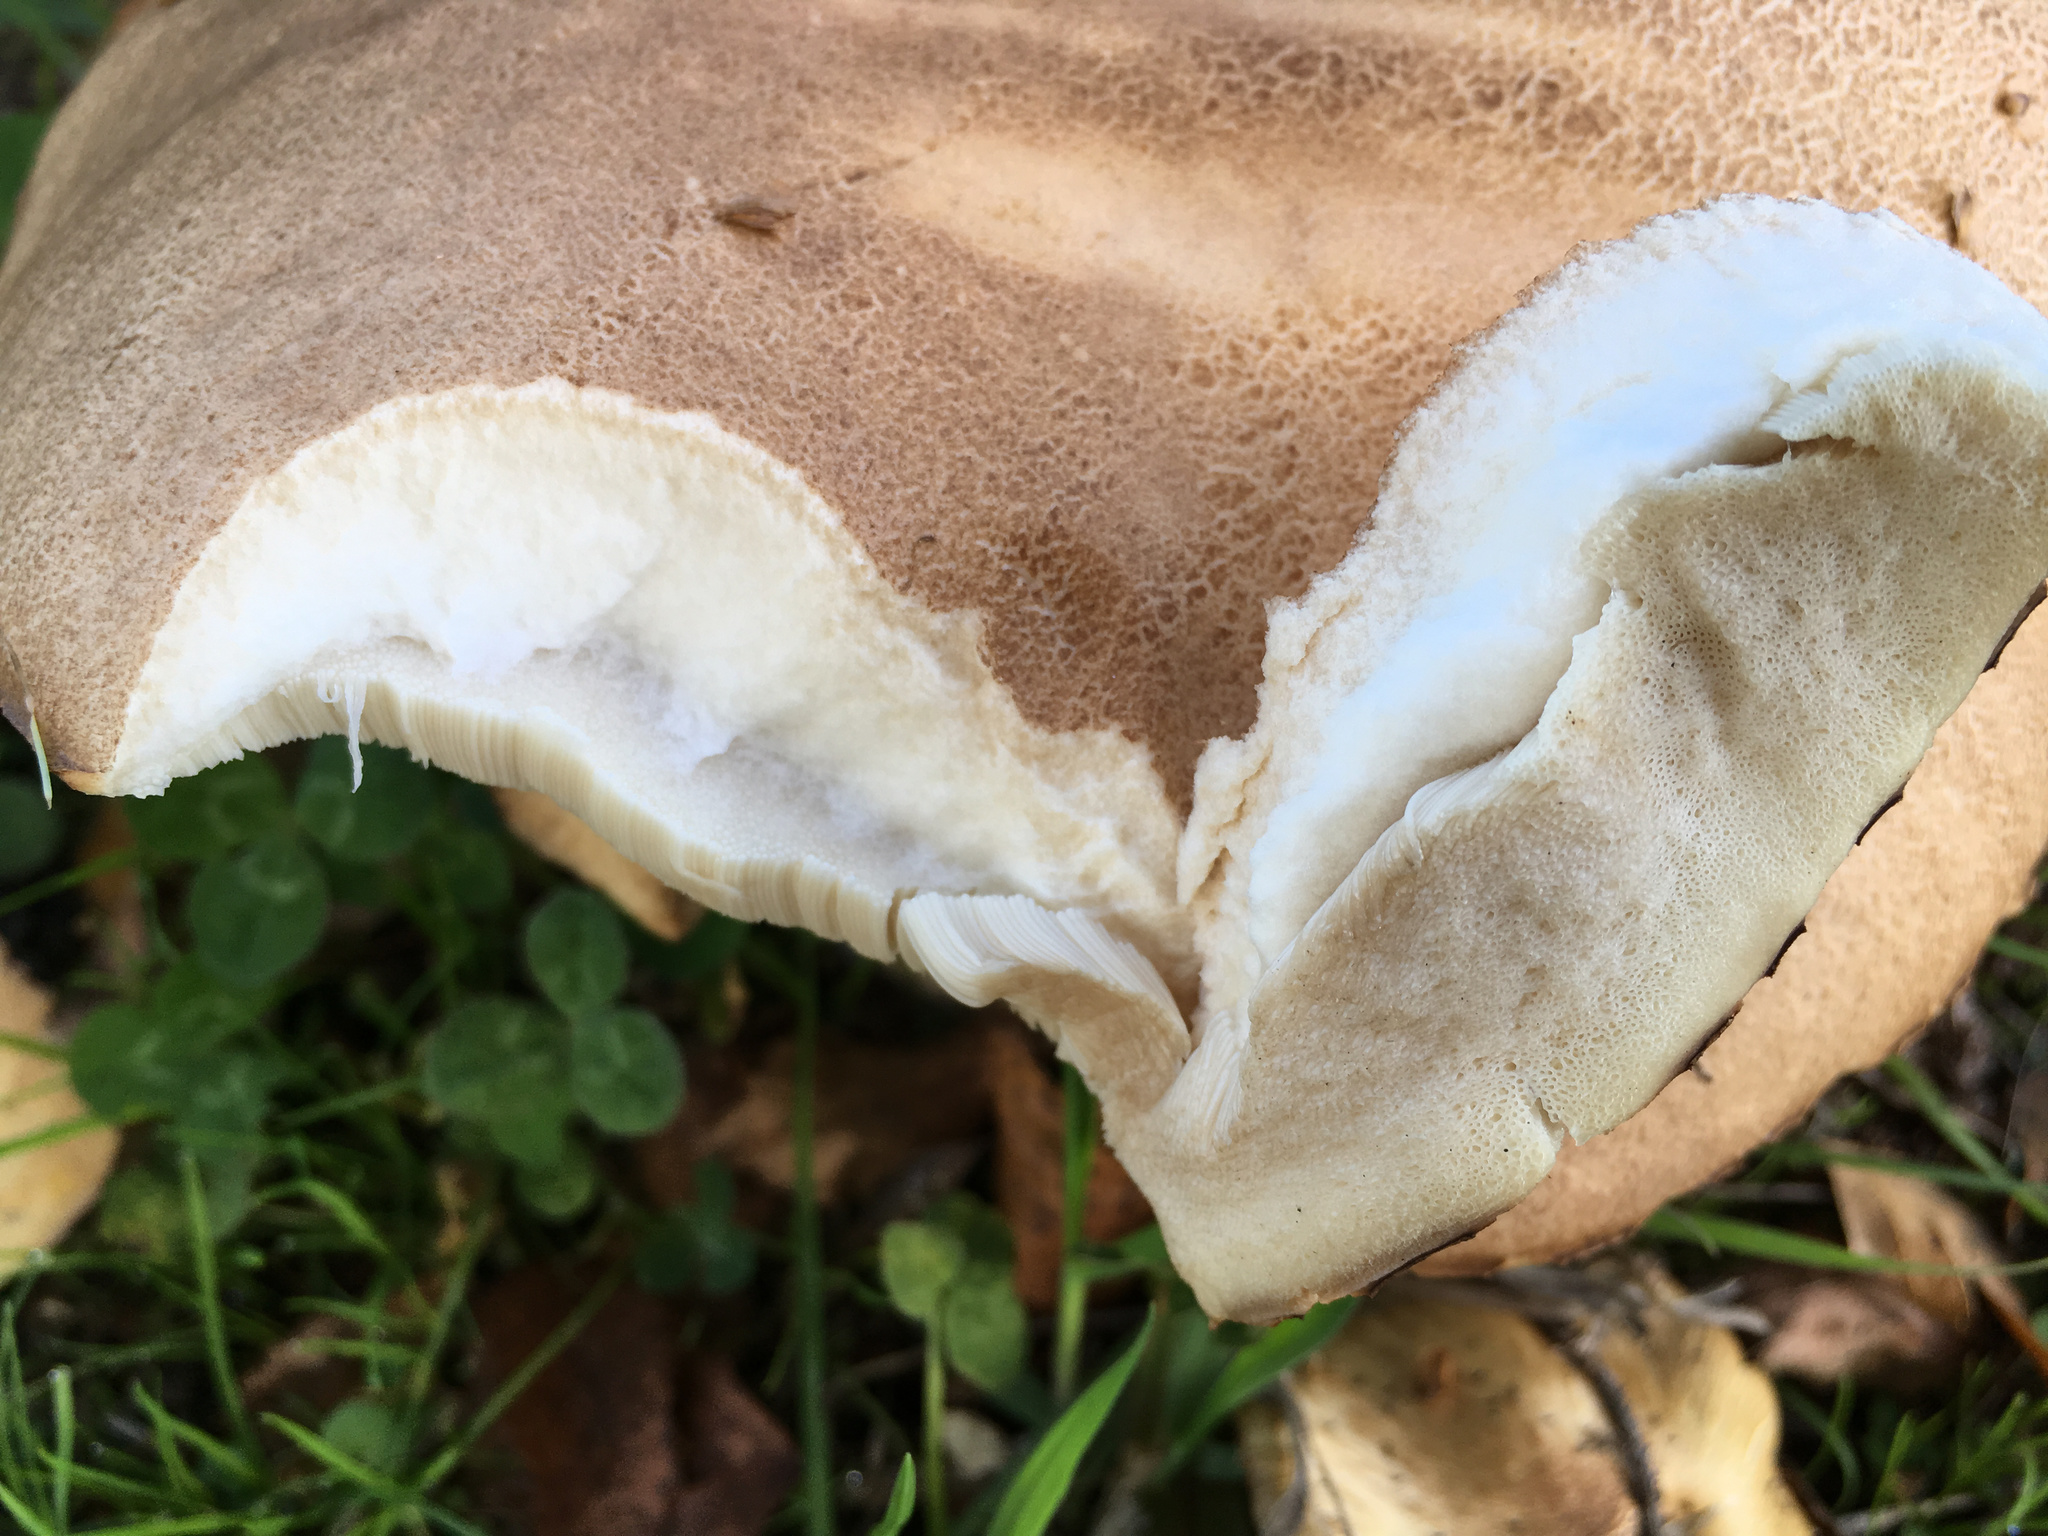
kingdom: Fungi
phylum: Basidiomycota
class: Agaricomycetes
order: Boletales
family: Boletaceae
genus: Leccinum
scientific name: Leccinum scabrum
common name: Blushing bolete
